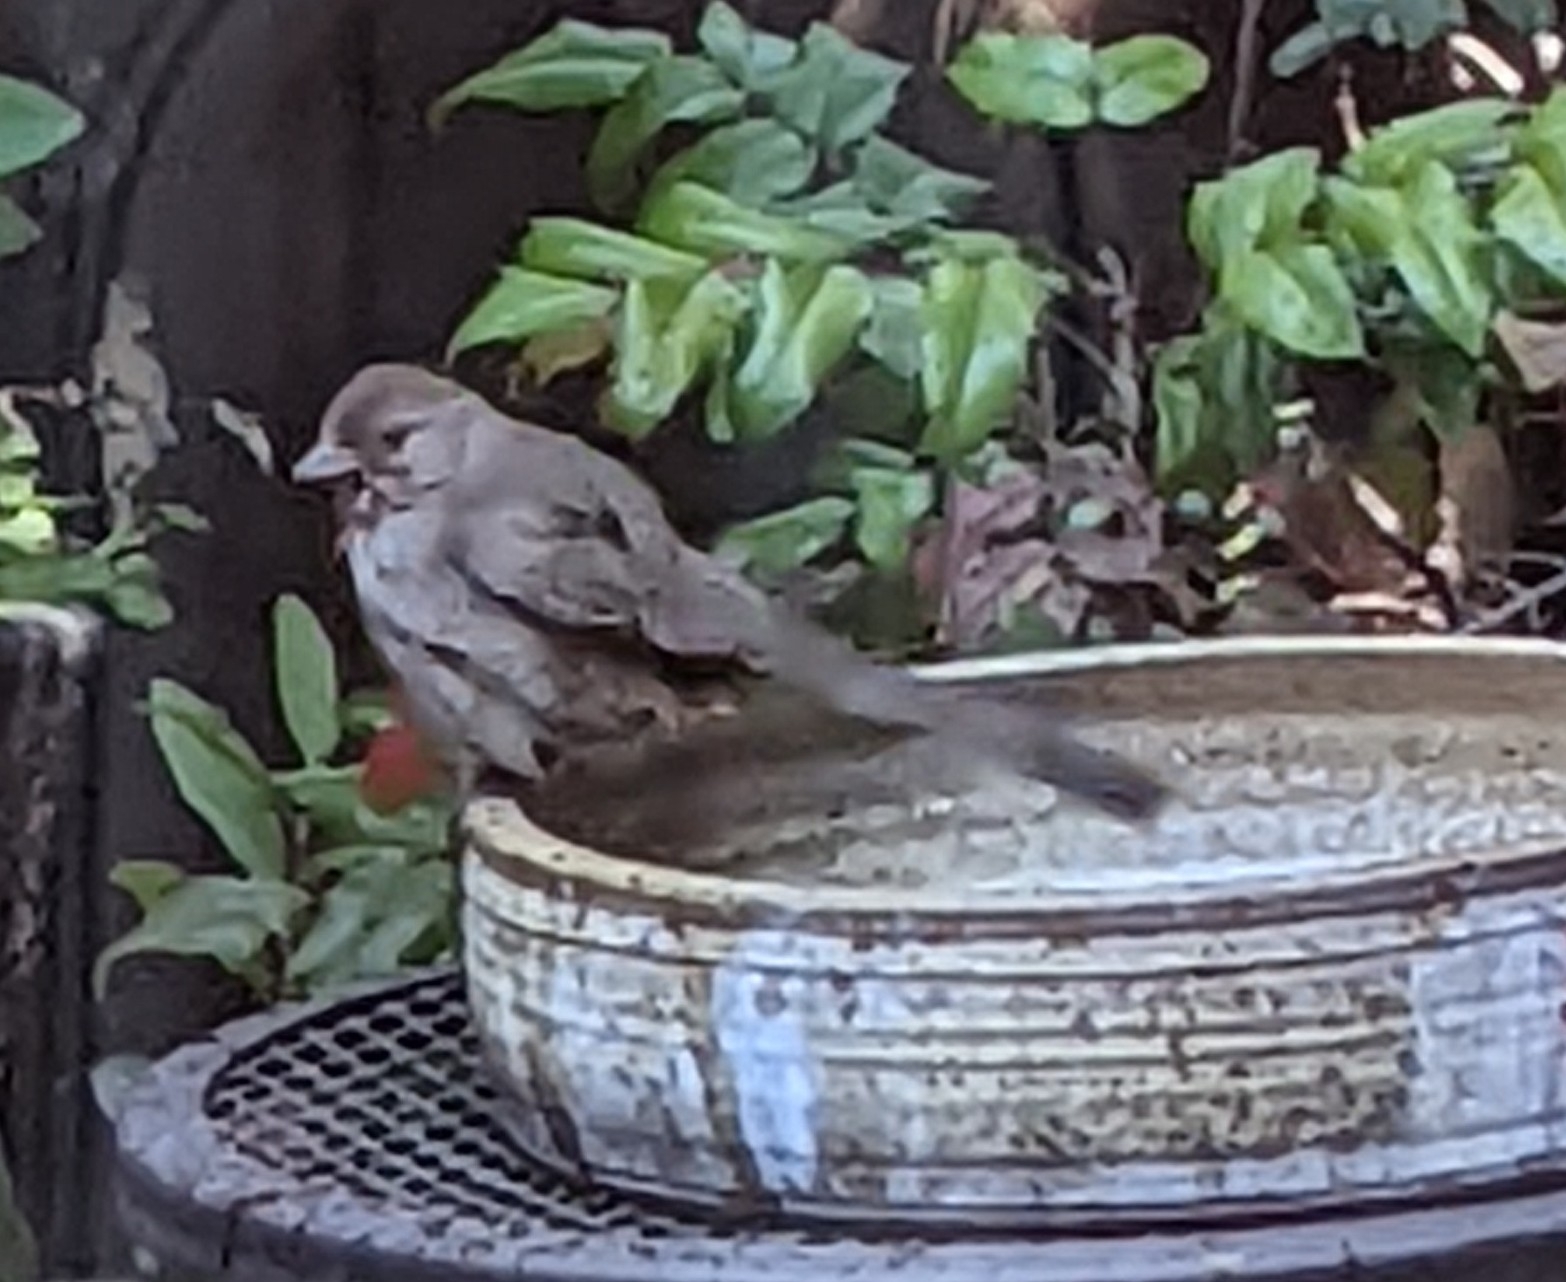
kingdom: Animalia
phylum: Chordata
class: Aves
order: Passeriformes
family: Passerellidae
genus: Melozone
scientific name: Melozone crissalis
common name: California towhee
